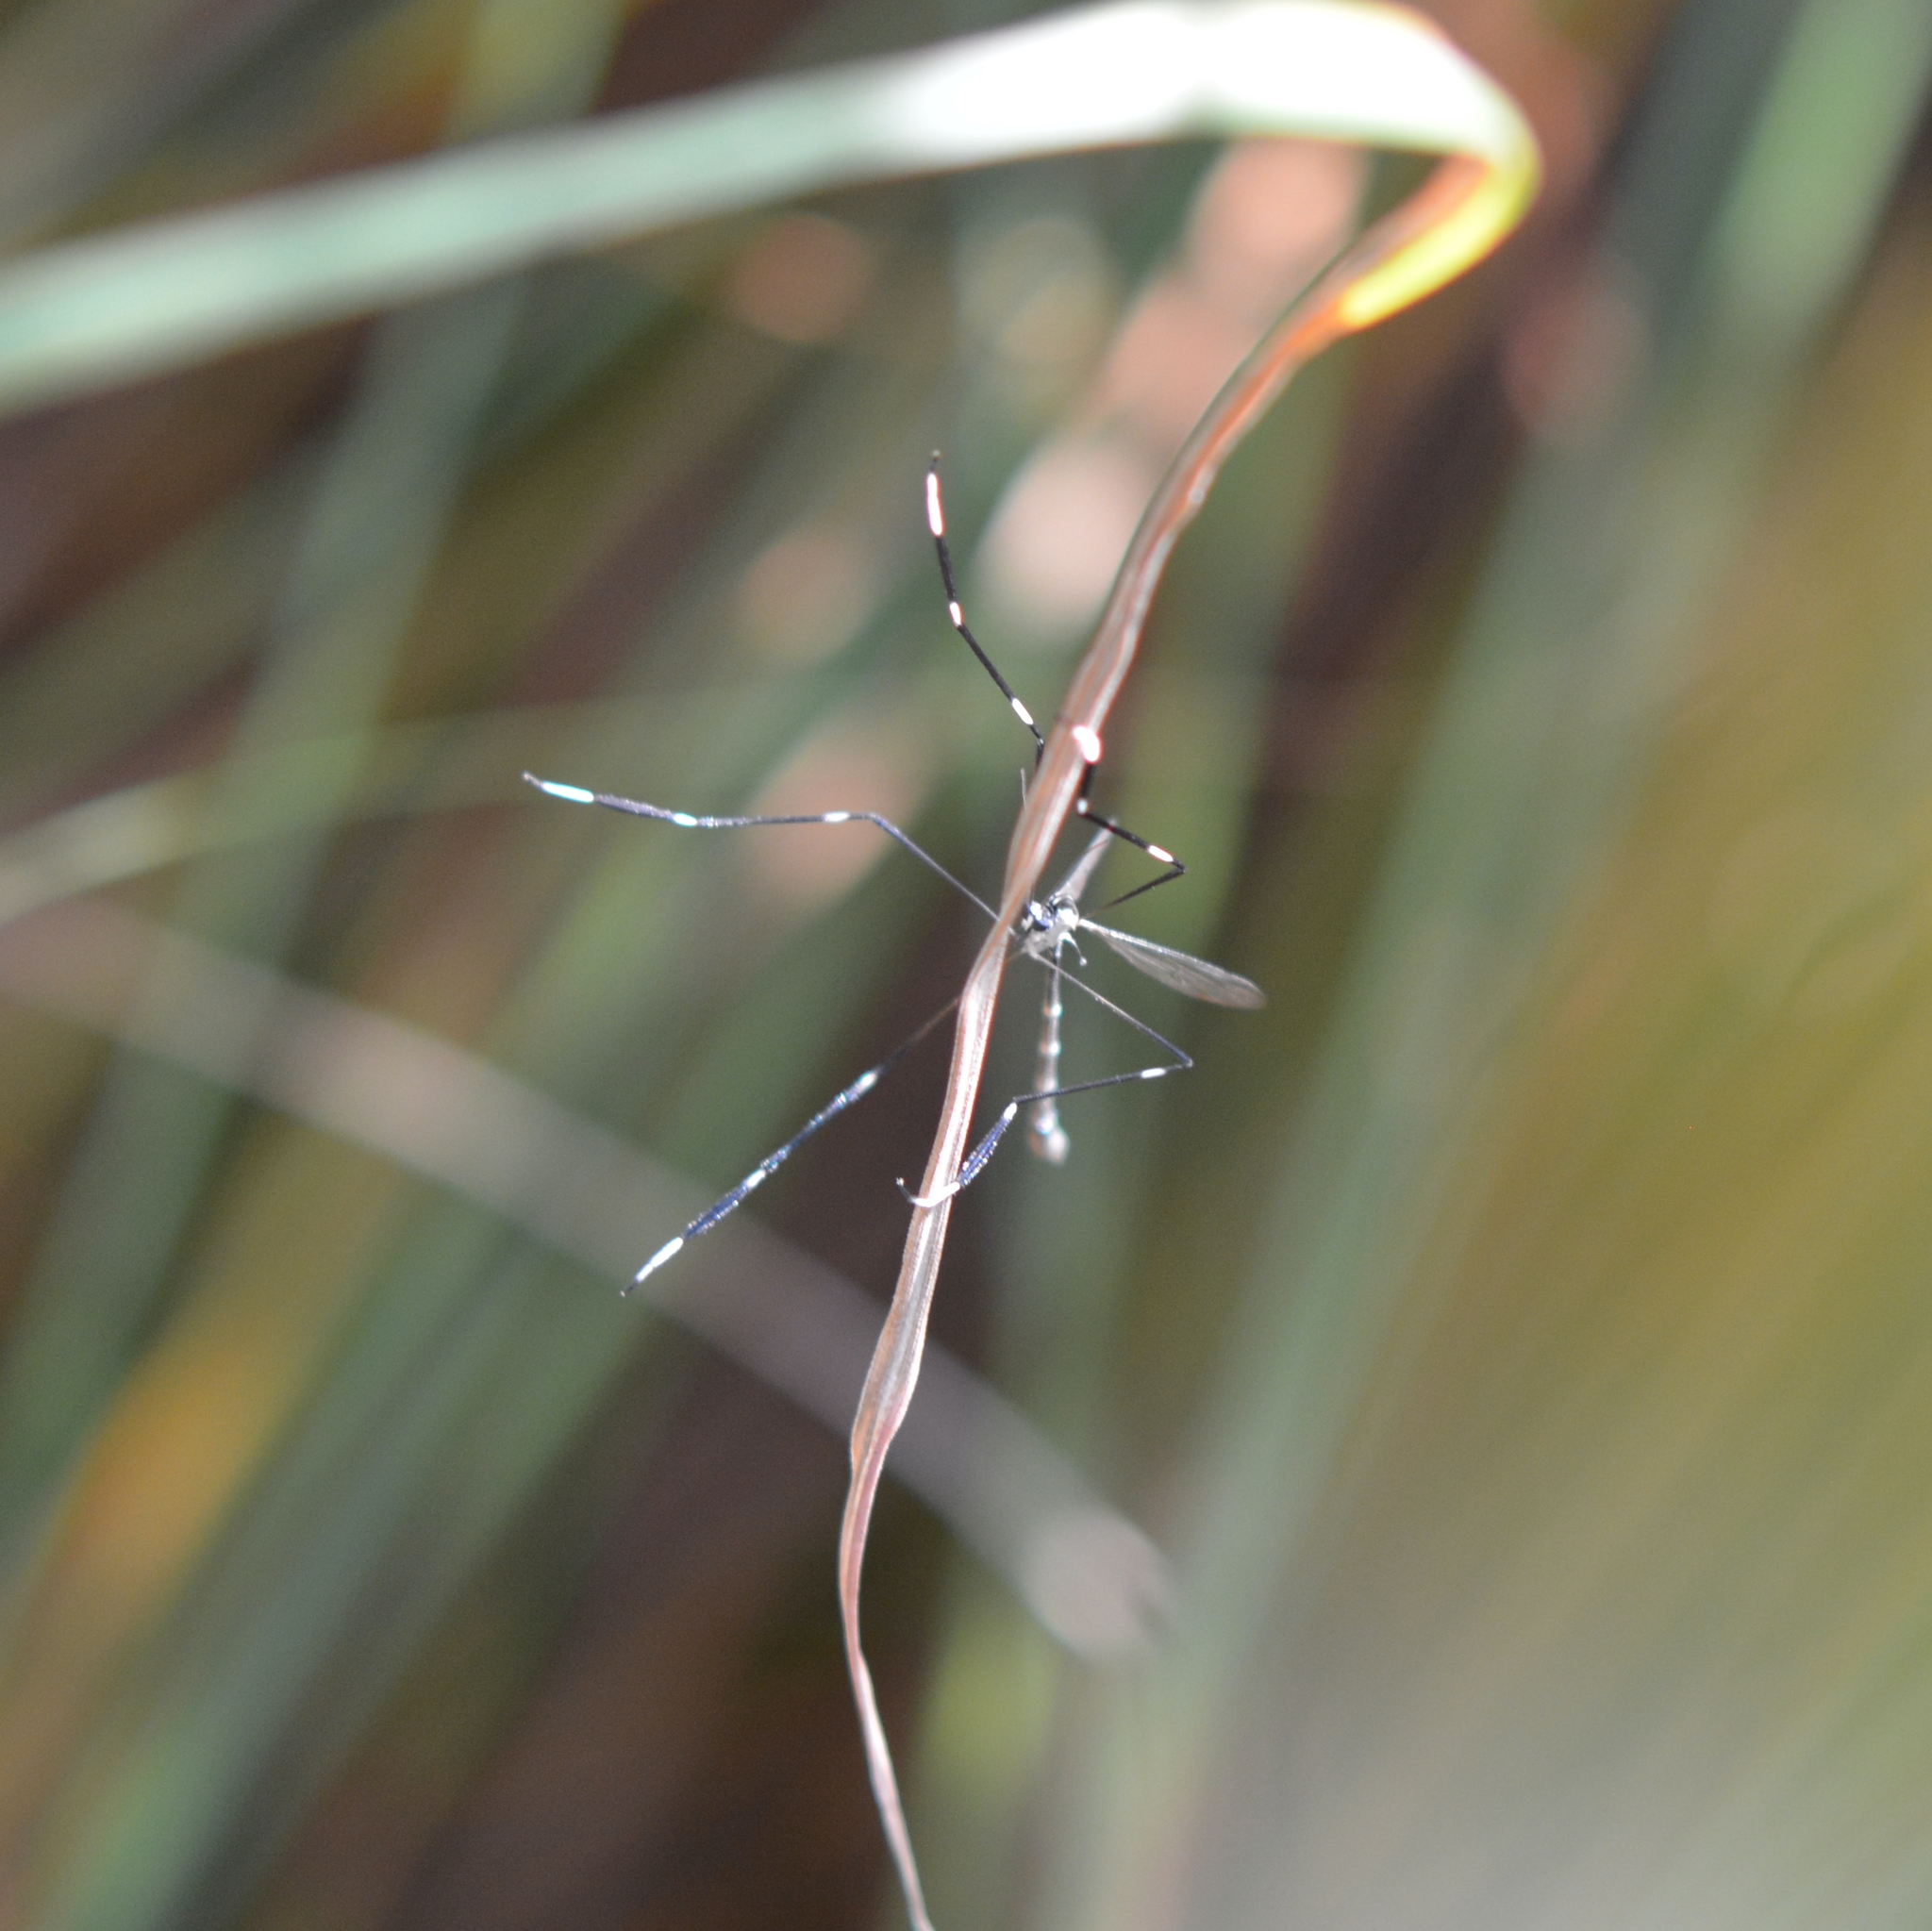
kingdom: Animalia
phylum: Arthropoda
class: Insecta
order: Diptera
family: Ptychopteridae
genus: Bittacomorpha
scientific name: Bittacomorpha clavipes
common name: Eastern phantom crane fly
